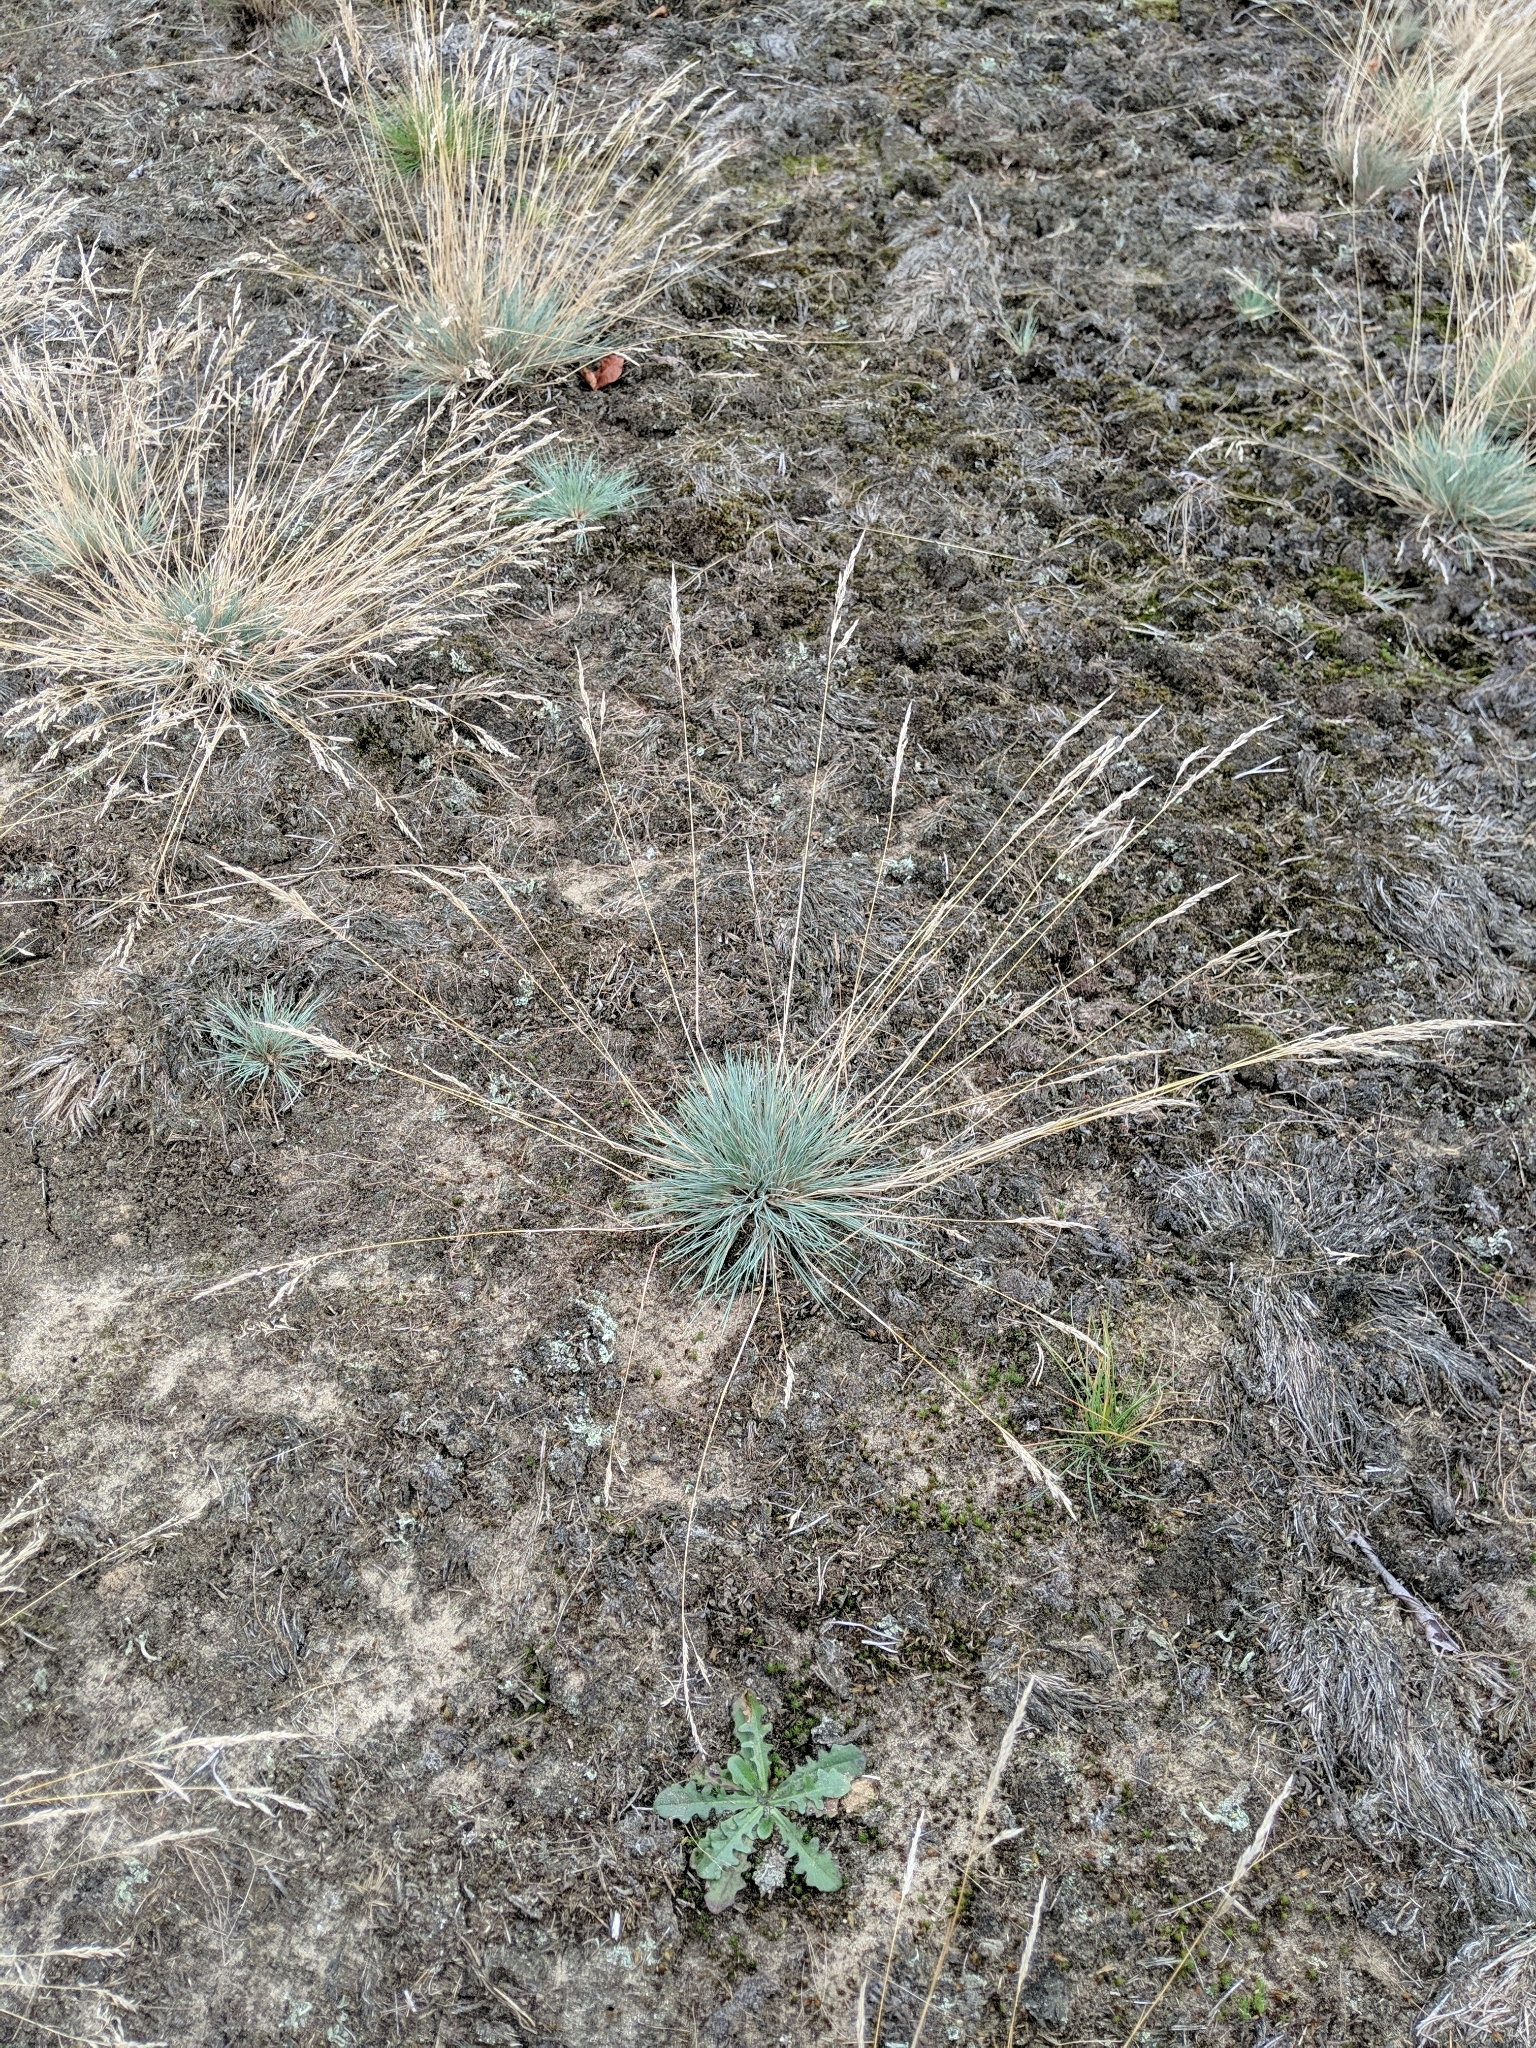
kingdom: Plantae
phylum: Tracheophyta
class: Liliopsida
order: Poales
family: Poaceae
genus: Corynephorus
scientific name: Corynephorus canescens
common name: Grey hair-grass
